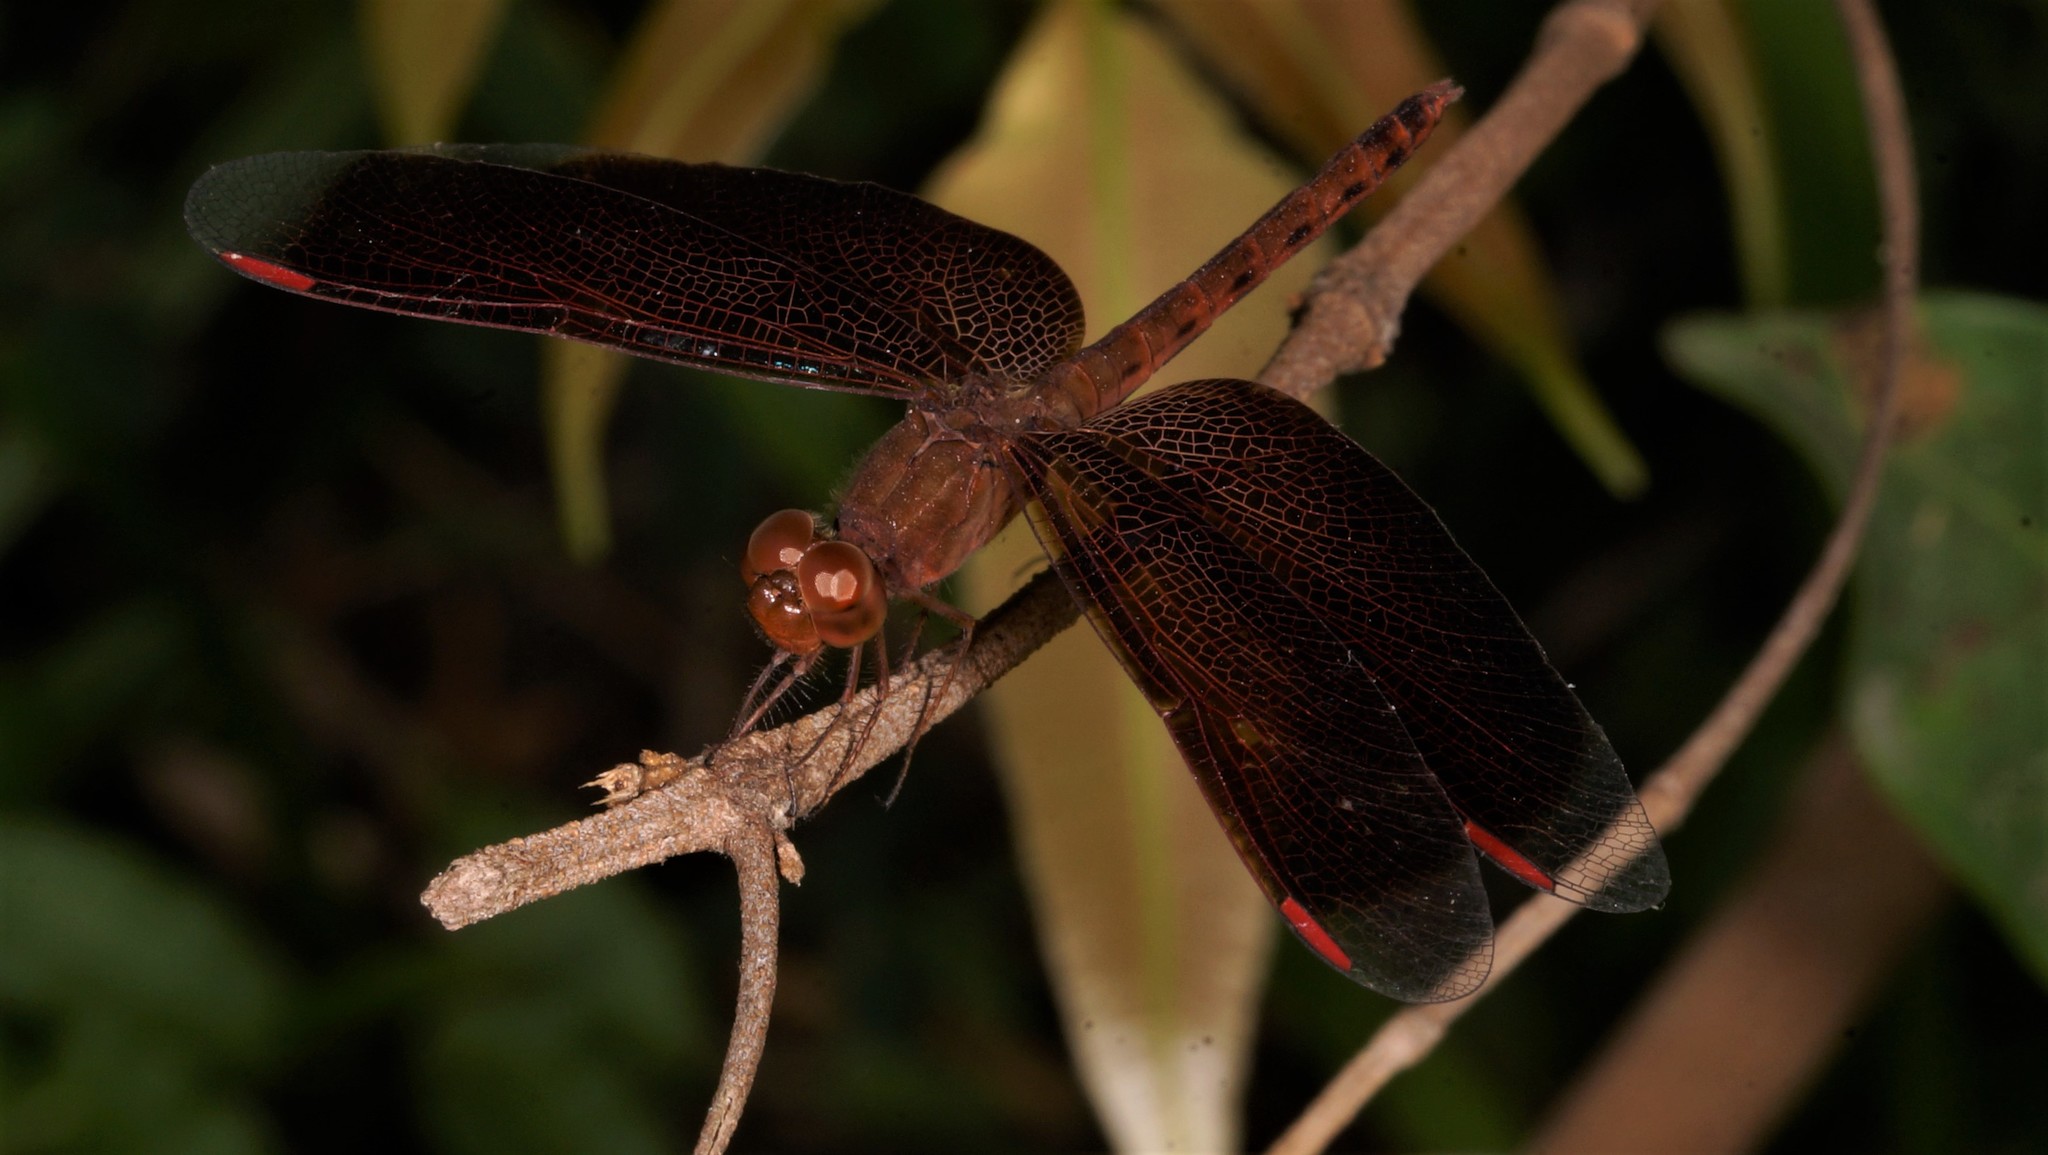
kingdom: Animalia
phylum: Arthropoda
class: Insecta
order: Odonata
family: Libellulidae
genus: Neurothemis
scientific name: Neurothemis fluctuans
